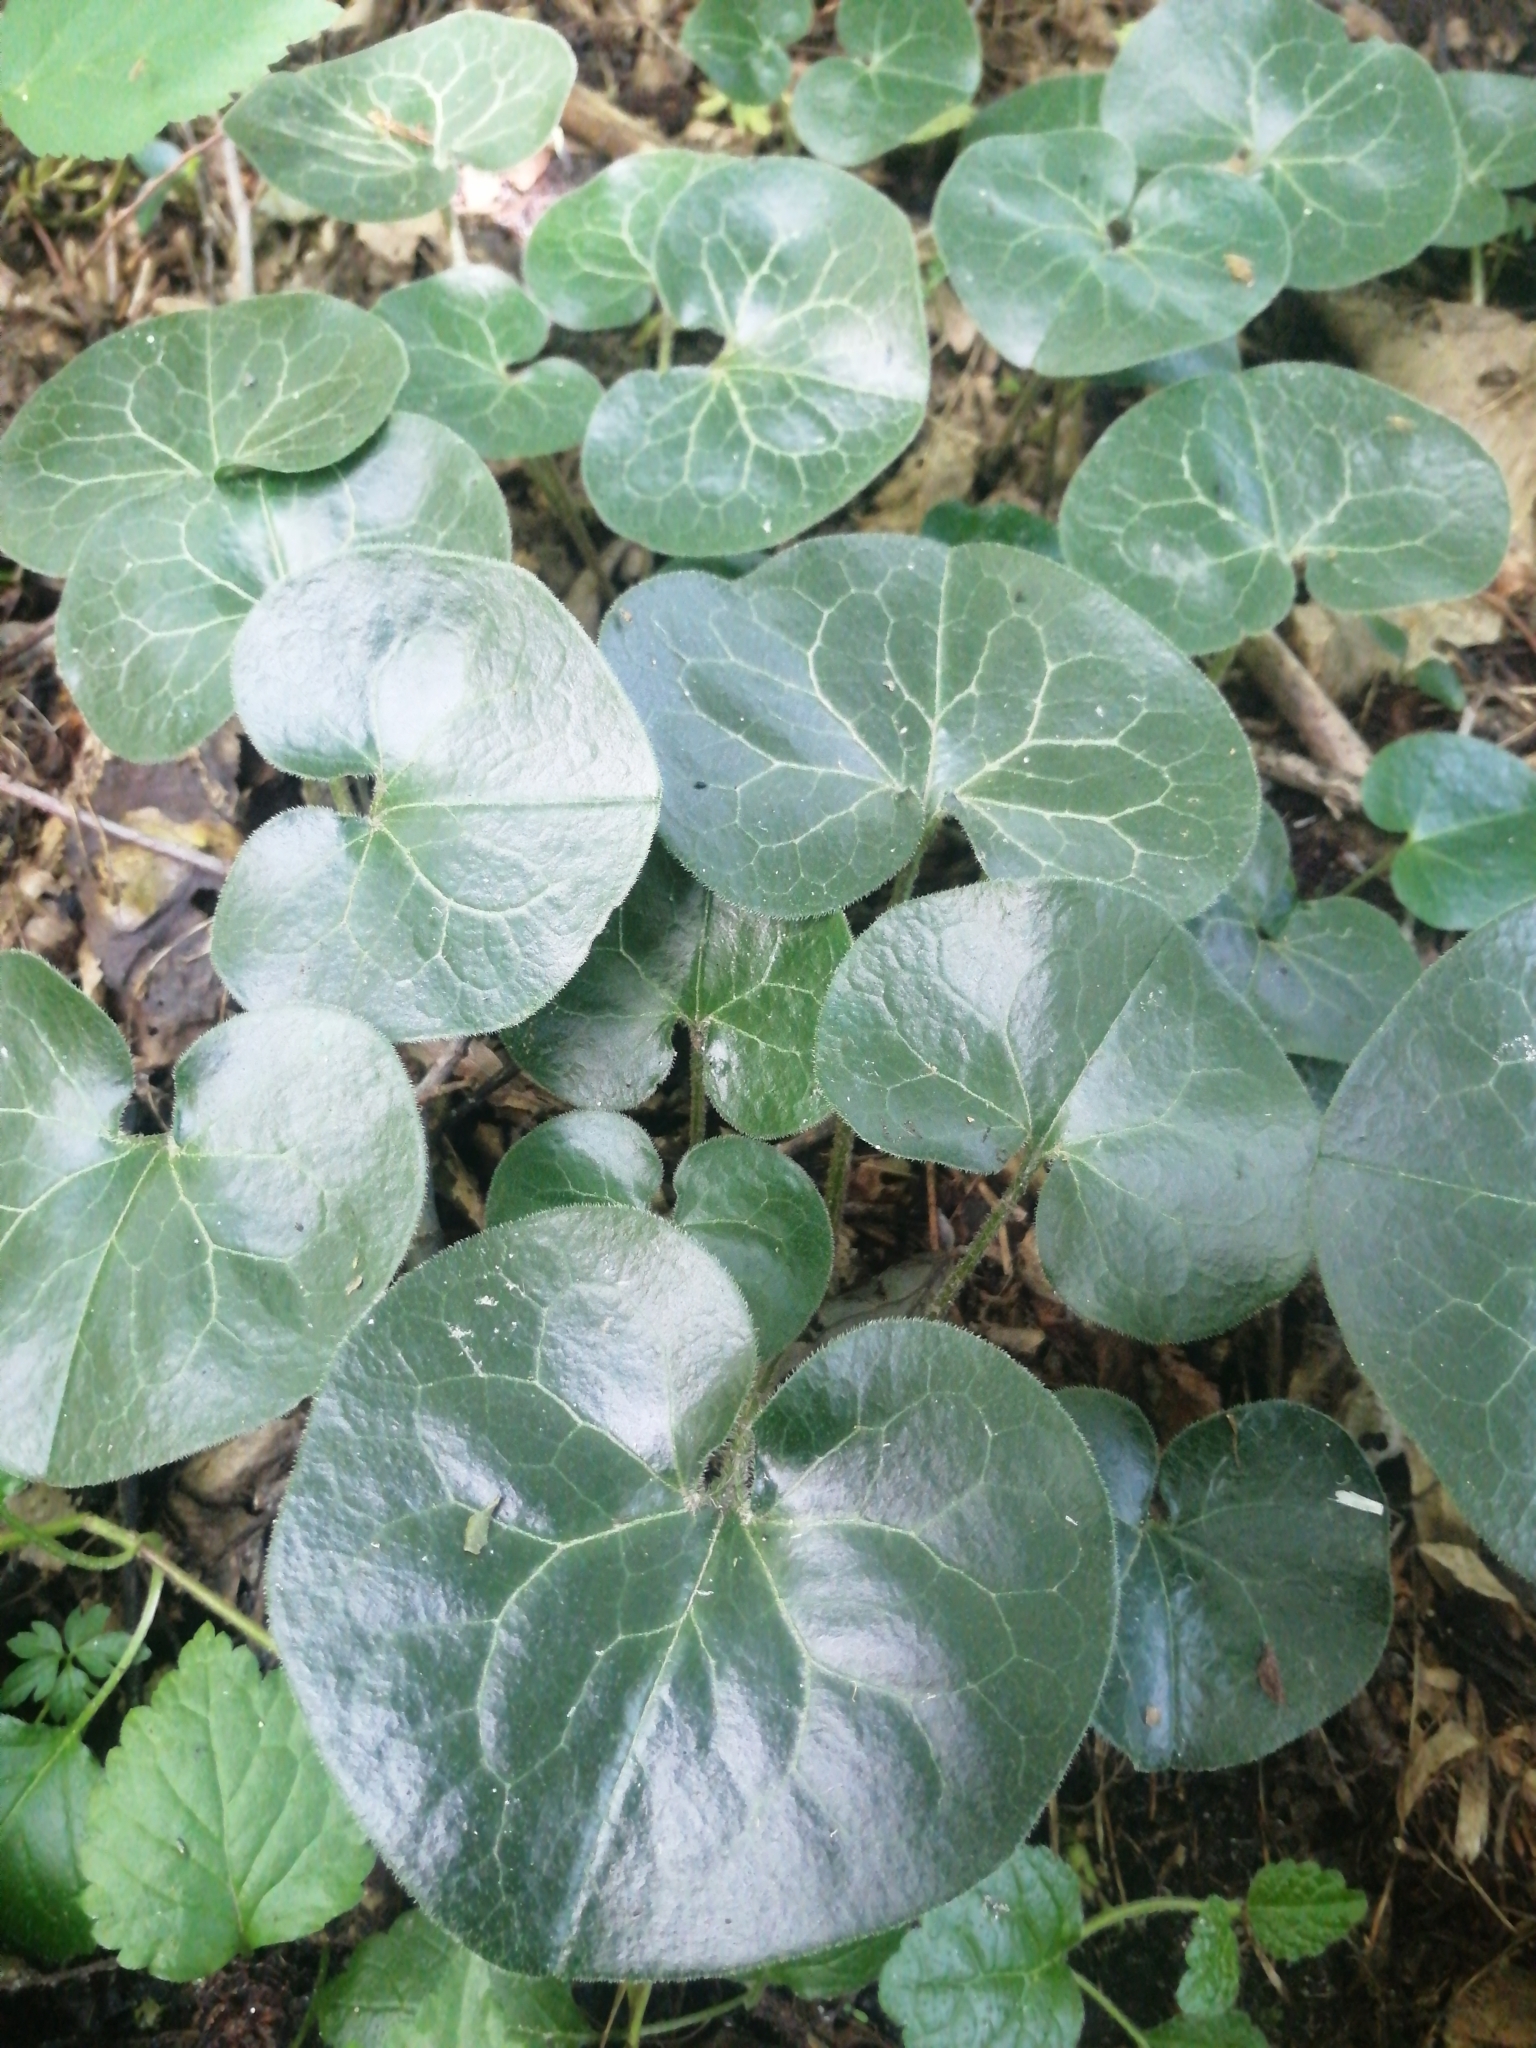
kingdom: Plantae
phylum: Tracheophyta
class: Magnoliopsida
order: Piperales
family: Aristolochiaceae
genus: Asarum
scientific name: Asarum europaeum
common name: Asarabacca
